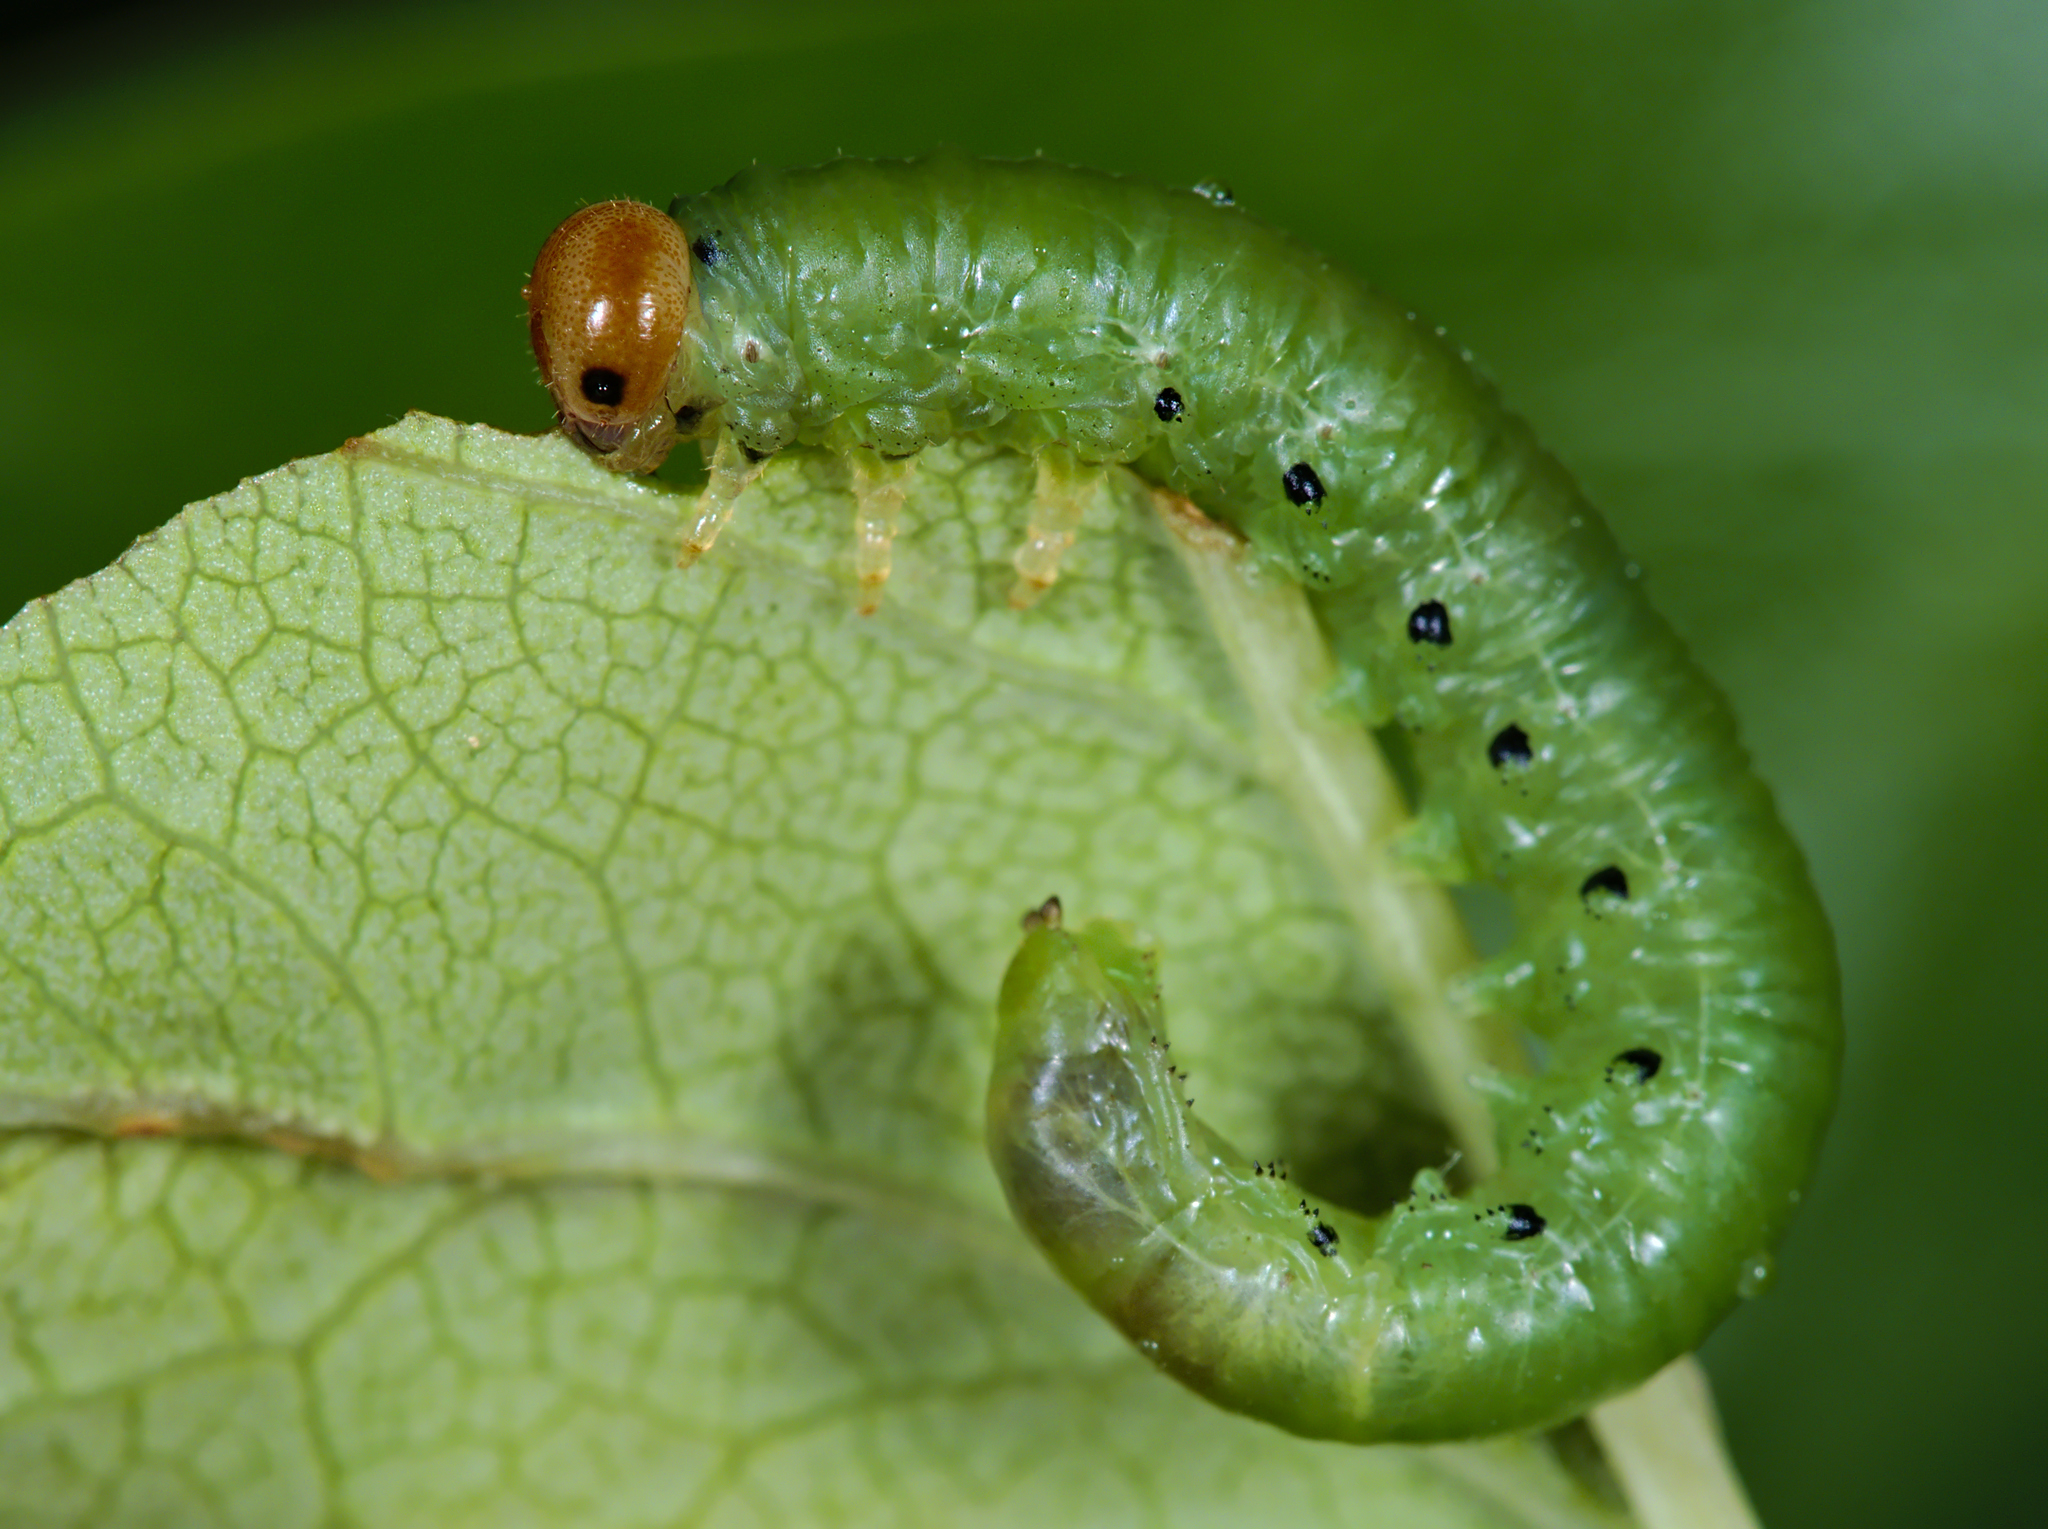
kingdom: Animalia
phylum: Arthropoda
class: Insecta
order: Hymenoptera
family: Tenthredinidae
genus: Nematus
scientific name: Nematus lucidus
